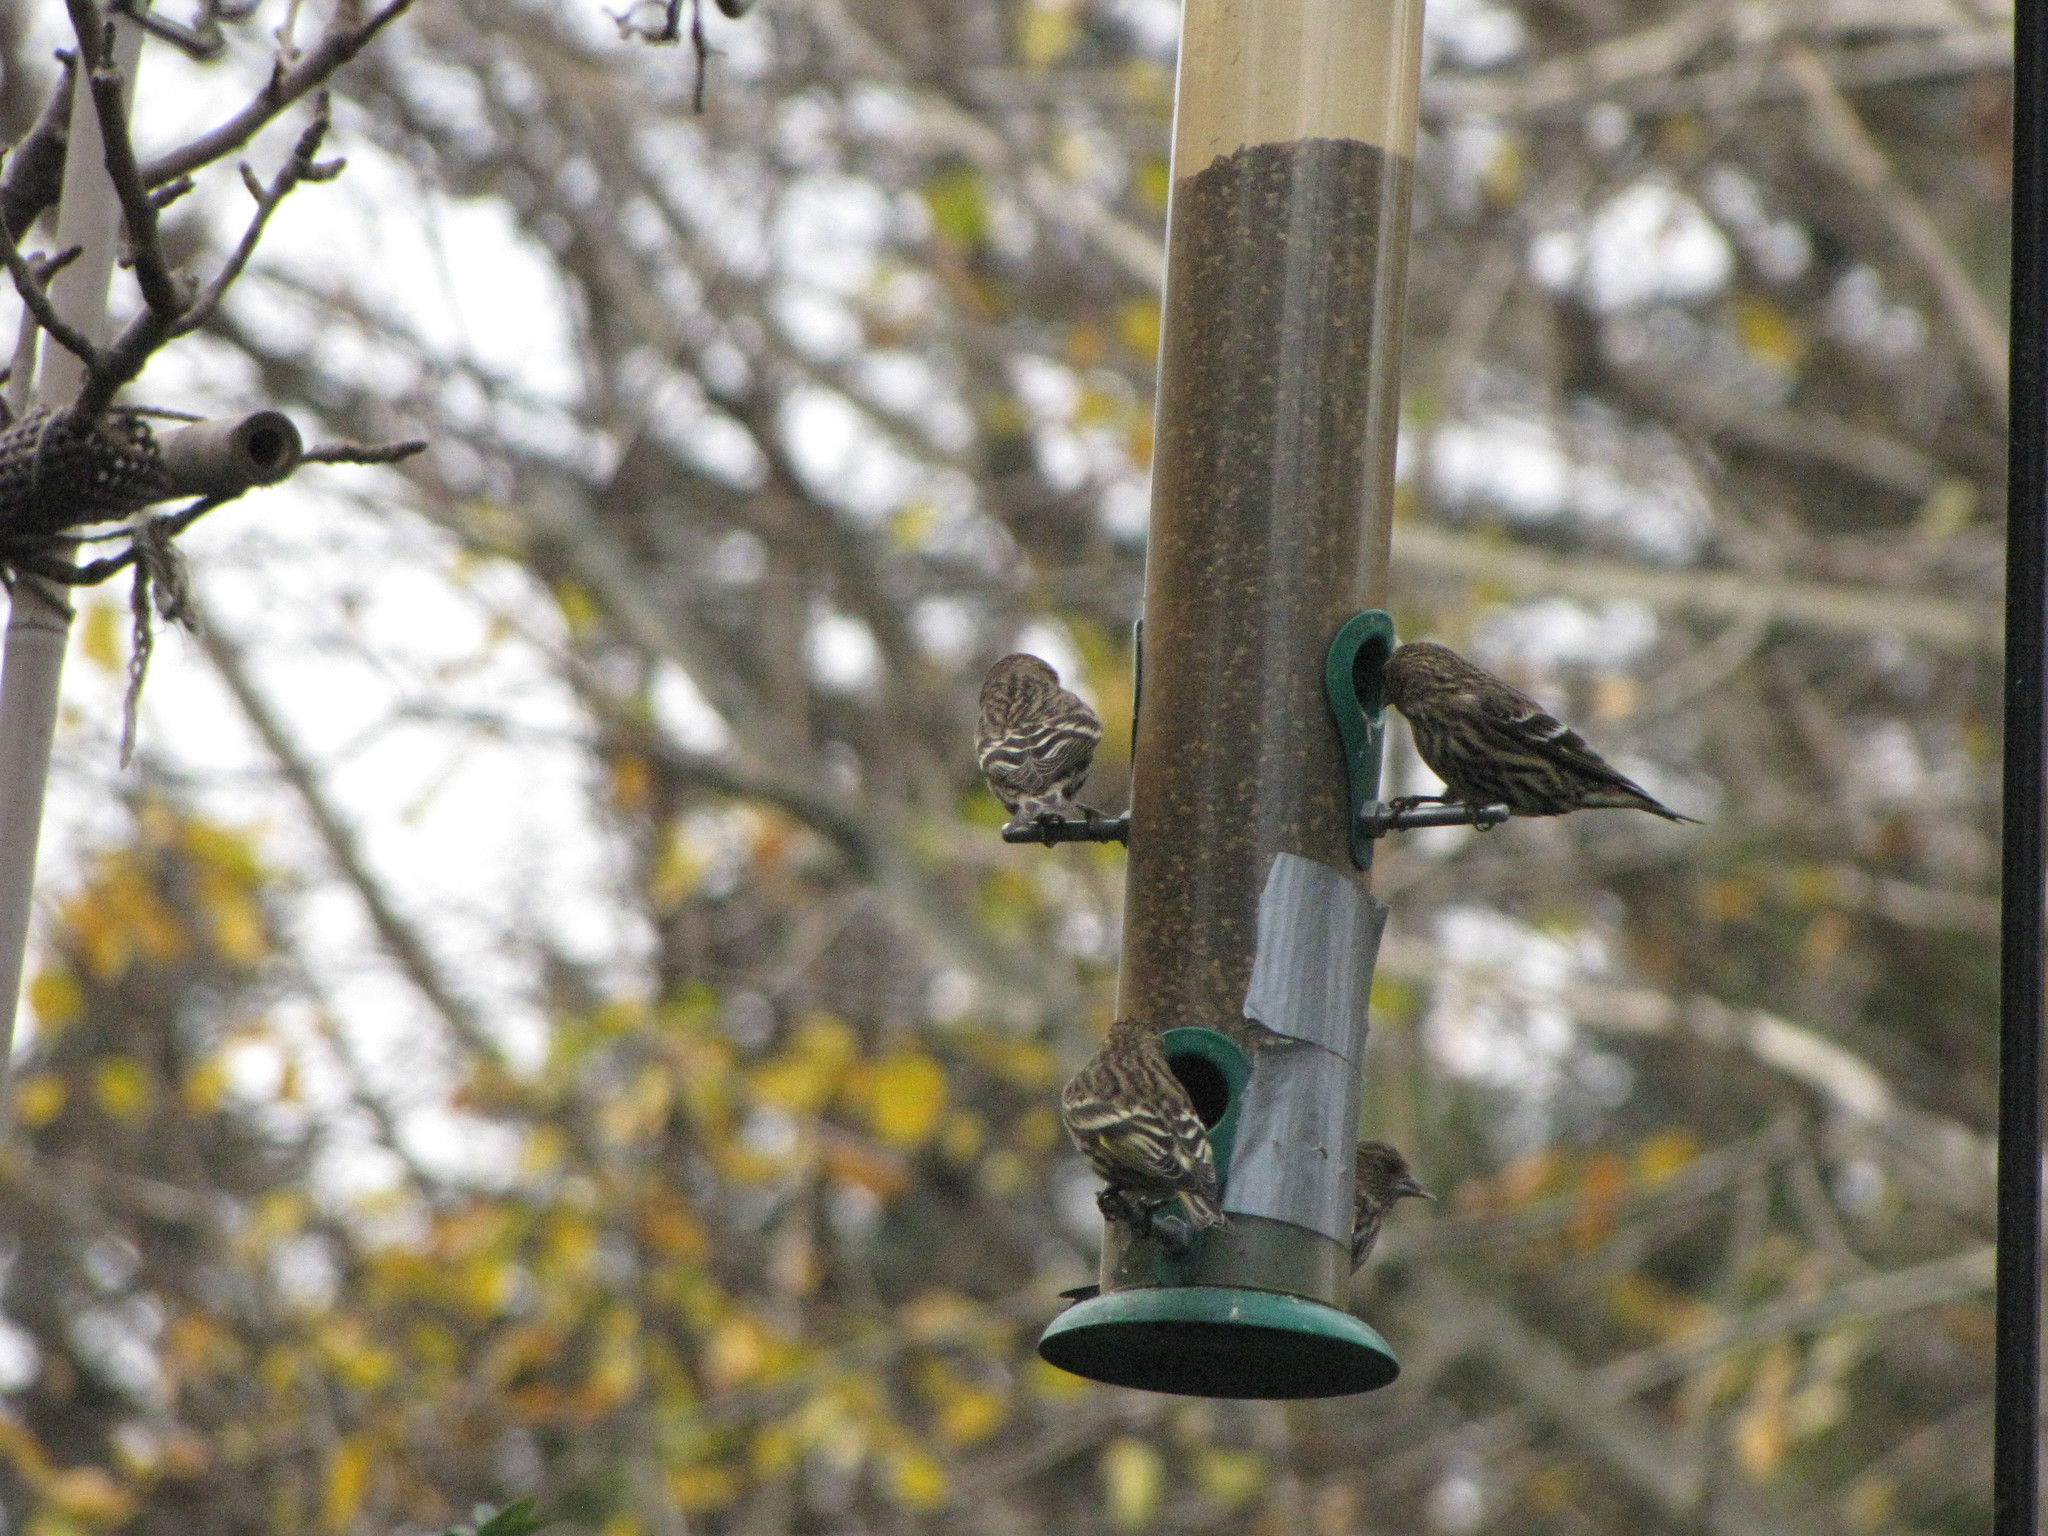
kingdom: Animalia
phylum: Chordata
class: Aves
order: Passeriformes
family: Fringillidae
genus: Spinus
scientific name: Spinus pinus
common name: Pine siskin
